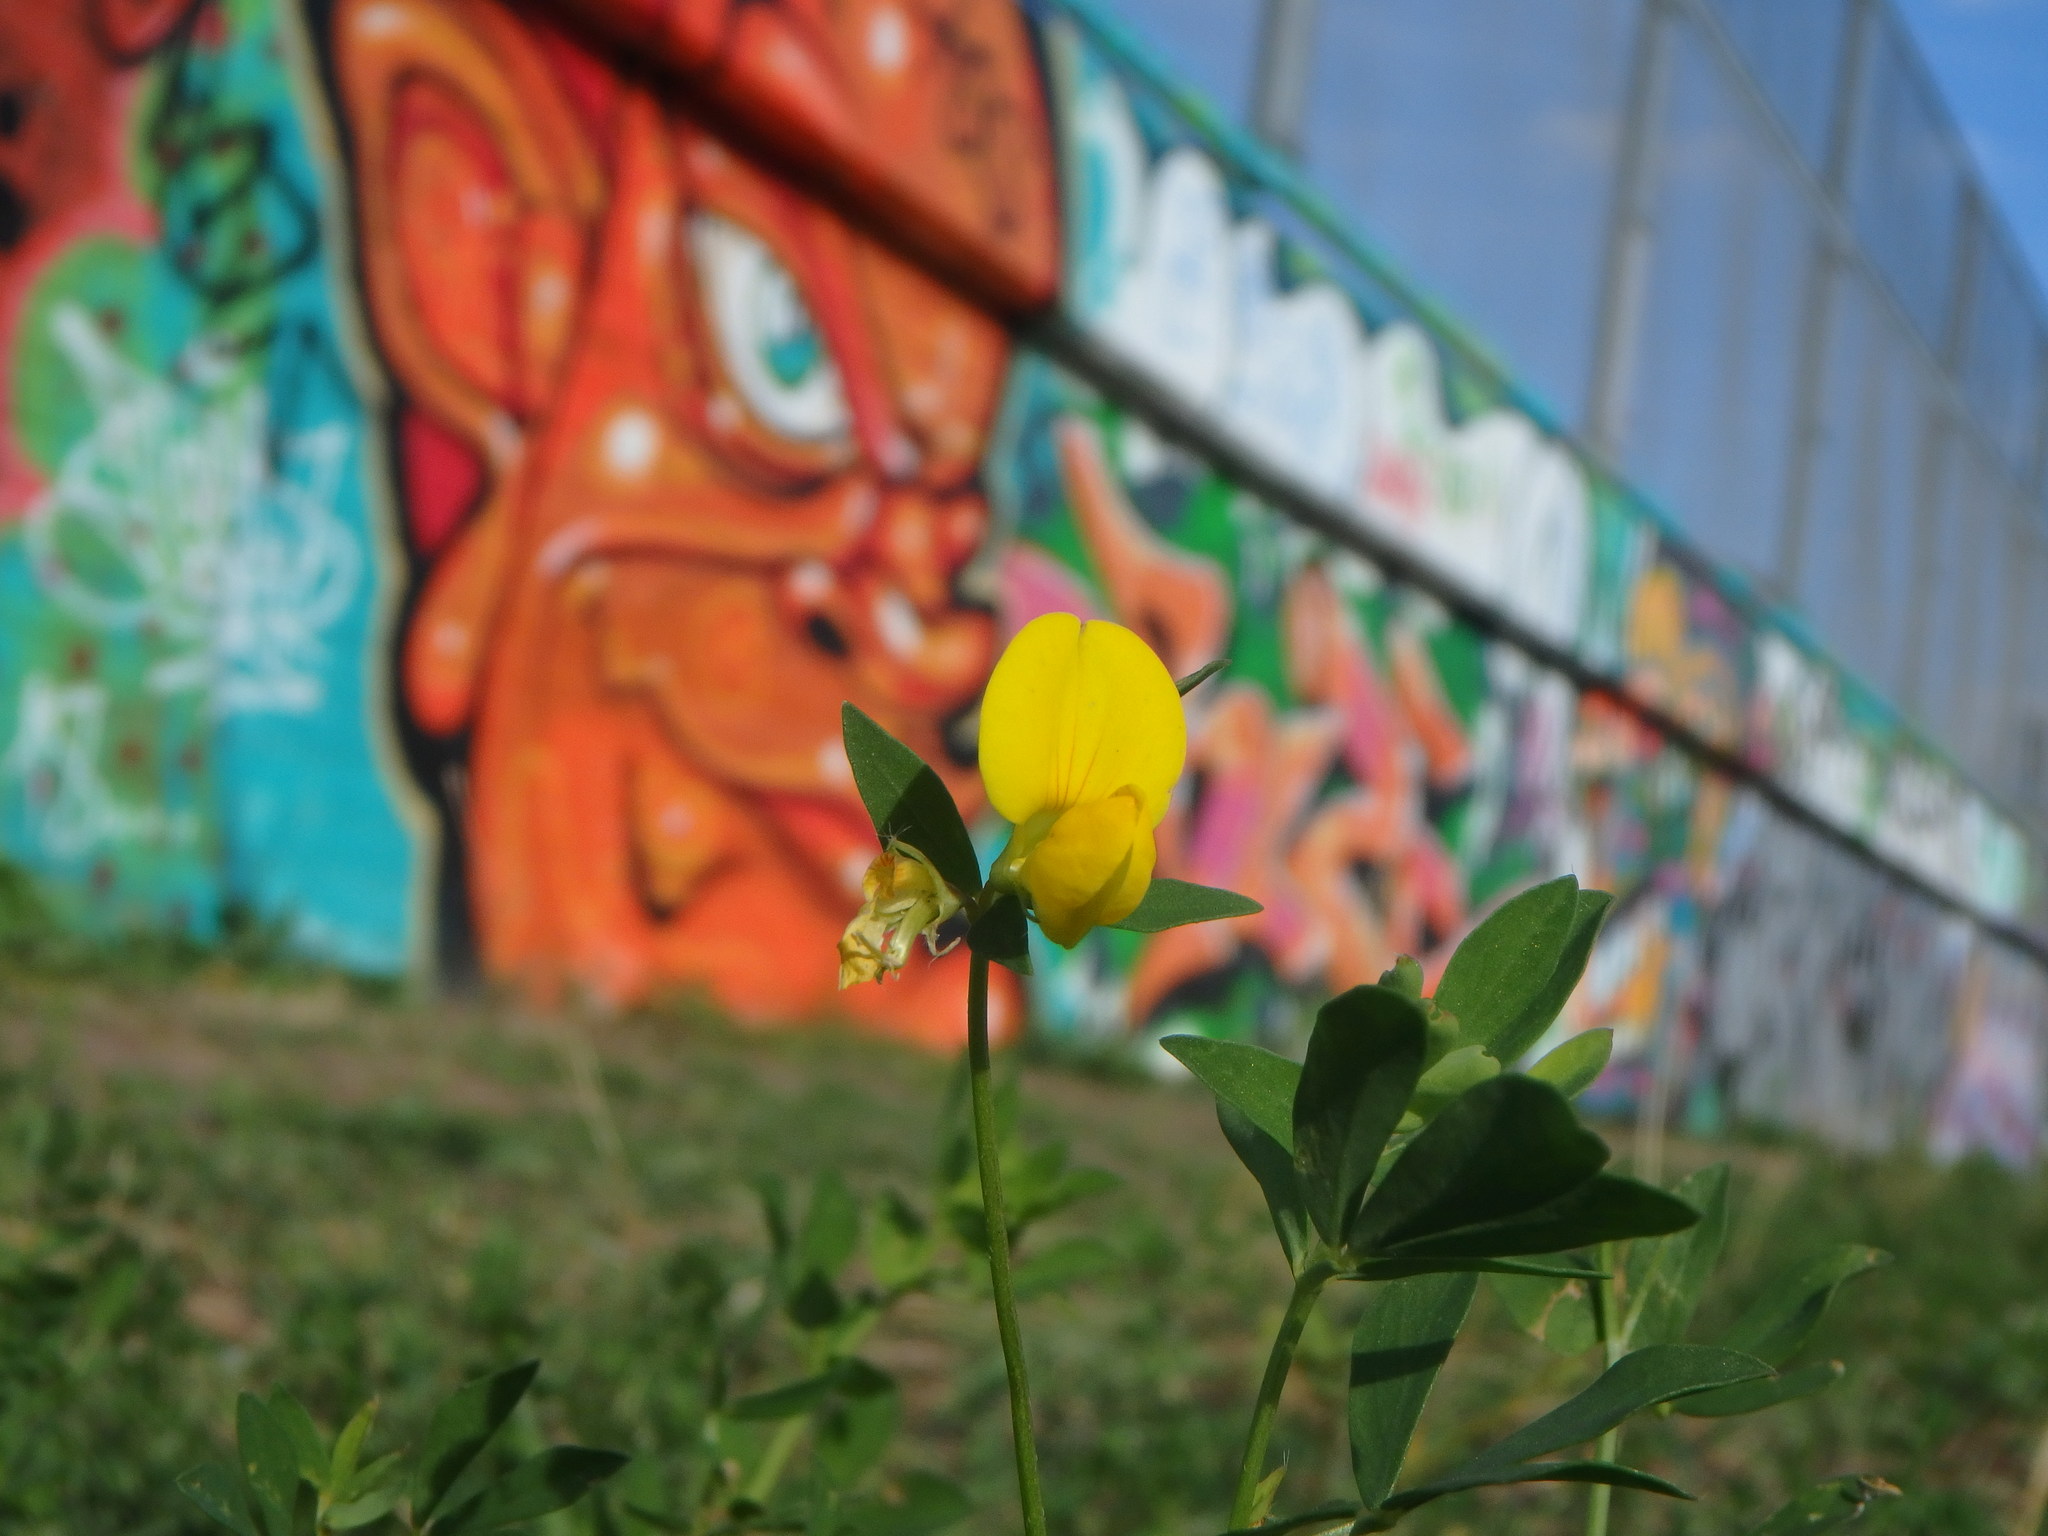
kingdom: Plantae
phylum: Tracheophyta
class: Magnoliopsida
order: Fabales
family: Fabaceae
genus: Lotus
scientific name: Lotus corniculatus
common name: Common bird's-foot-trefoil
